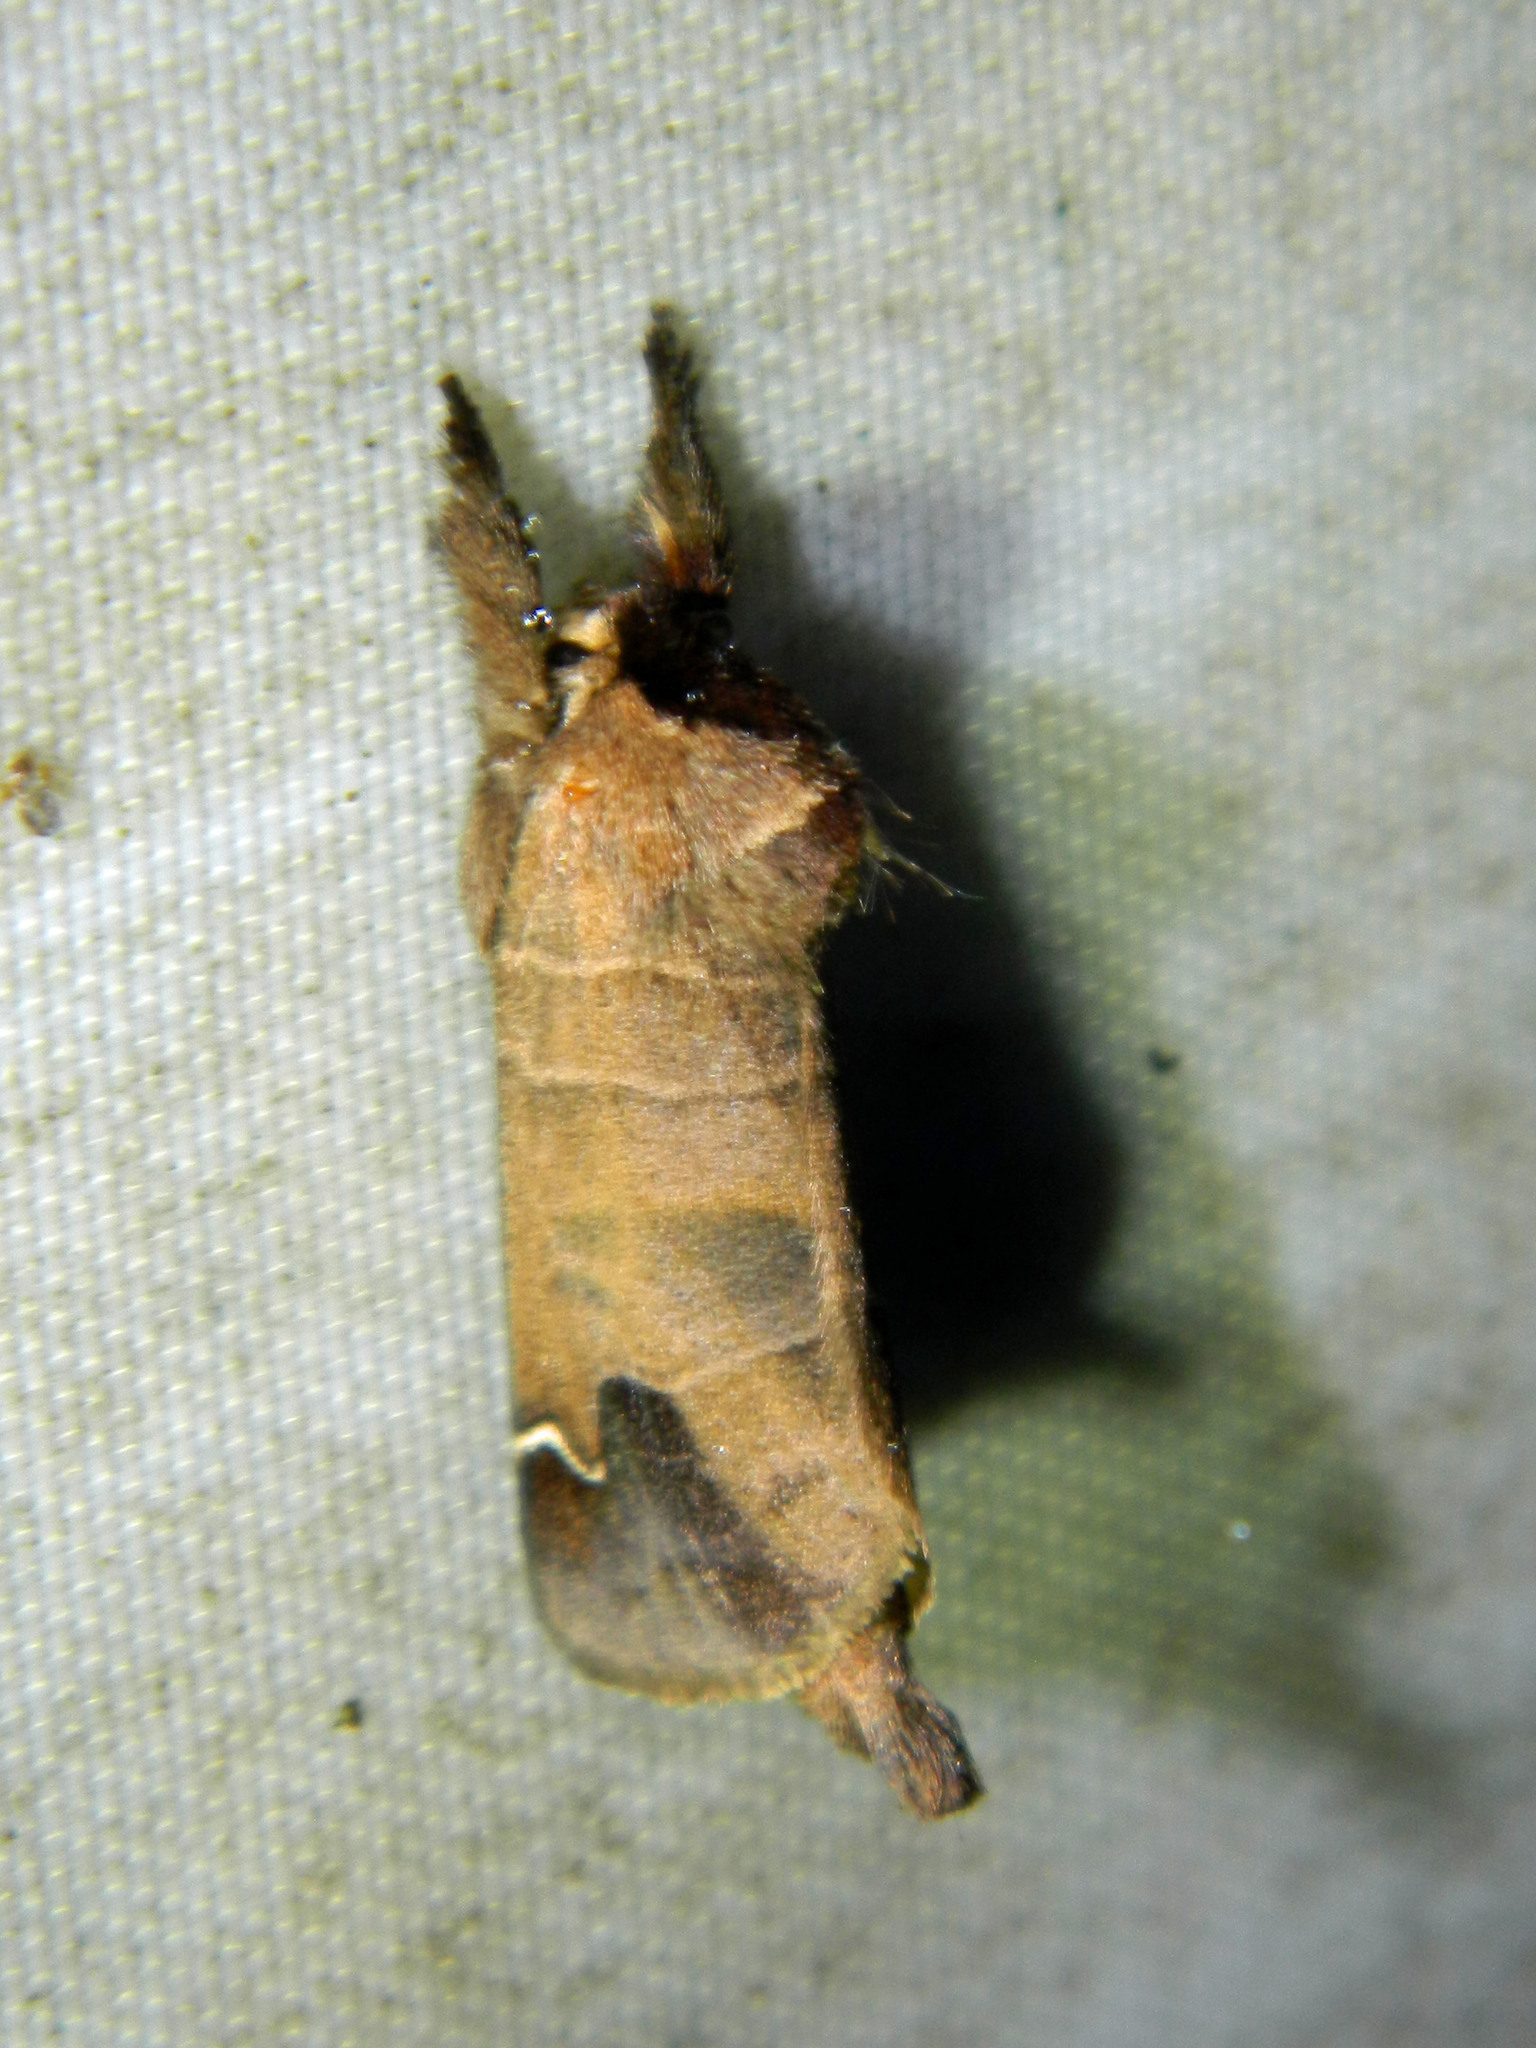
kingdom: Animalia
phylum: Arthropoda
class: Insecta
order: Lepidoptera
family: Notodontidae
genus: Clostera
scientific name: Clostera albosigma
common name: Sigmoid prominent
